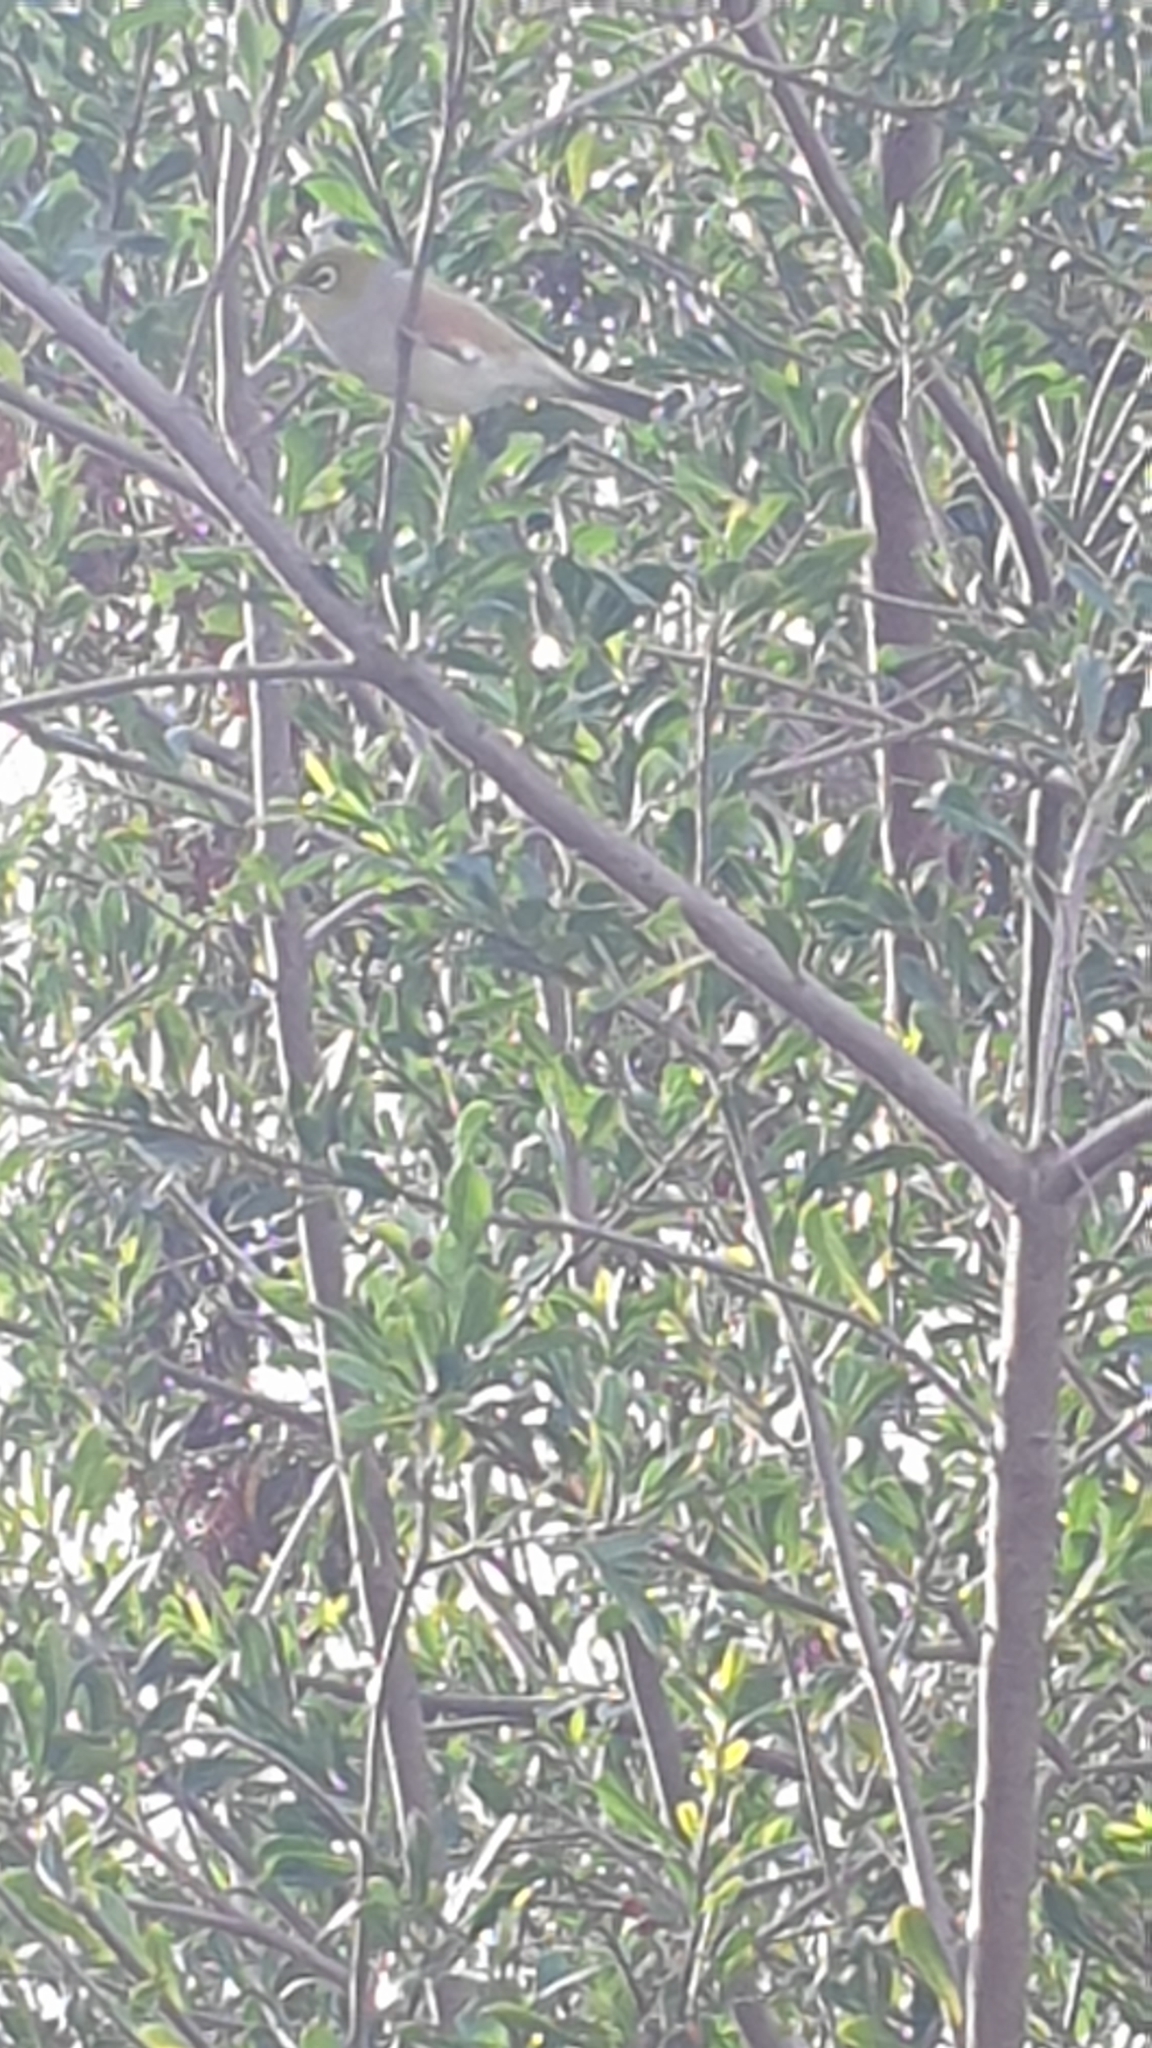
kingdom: Animalia
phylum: Chordata
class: Aves
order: Passeriformes
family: Zosteropidae
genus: Zosterops
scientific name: Zosterops lateralis
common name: Silvereye
